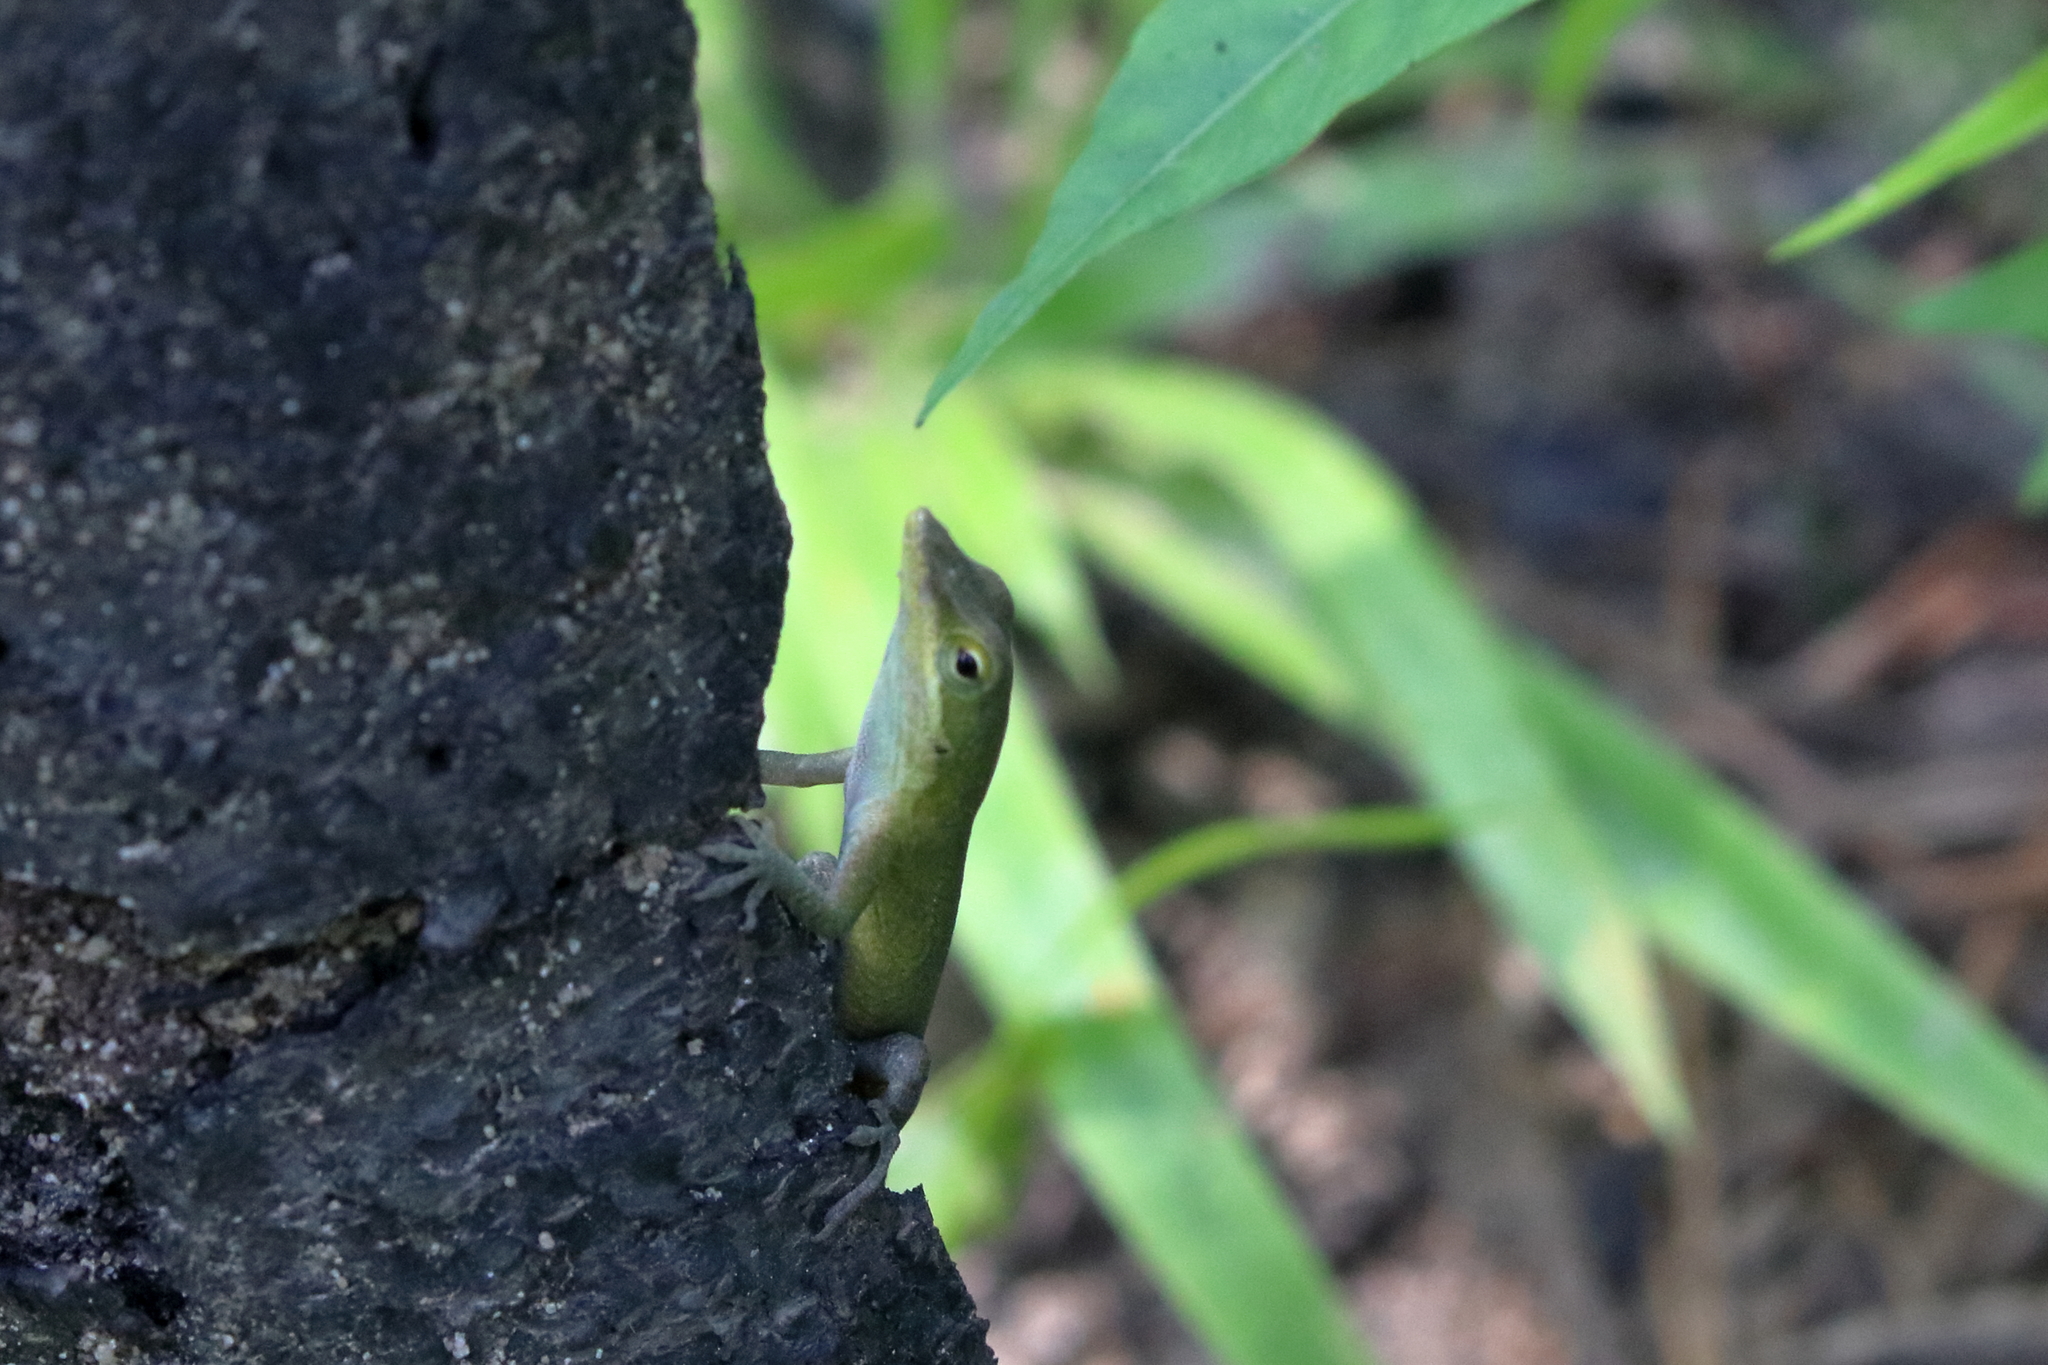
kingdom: Animalia
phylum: Chordata
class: Squamata
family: Dactyloidae
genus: Anolis
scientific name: Anolis carolinensis
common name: Green anole
